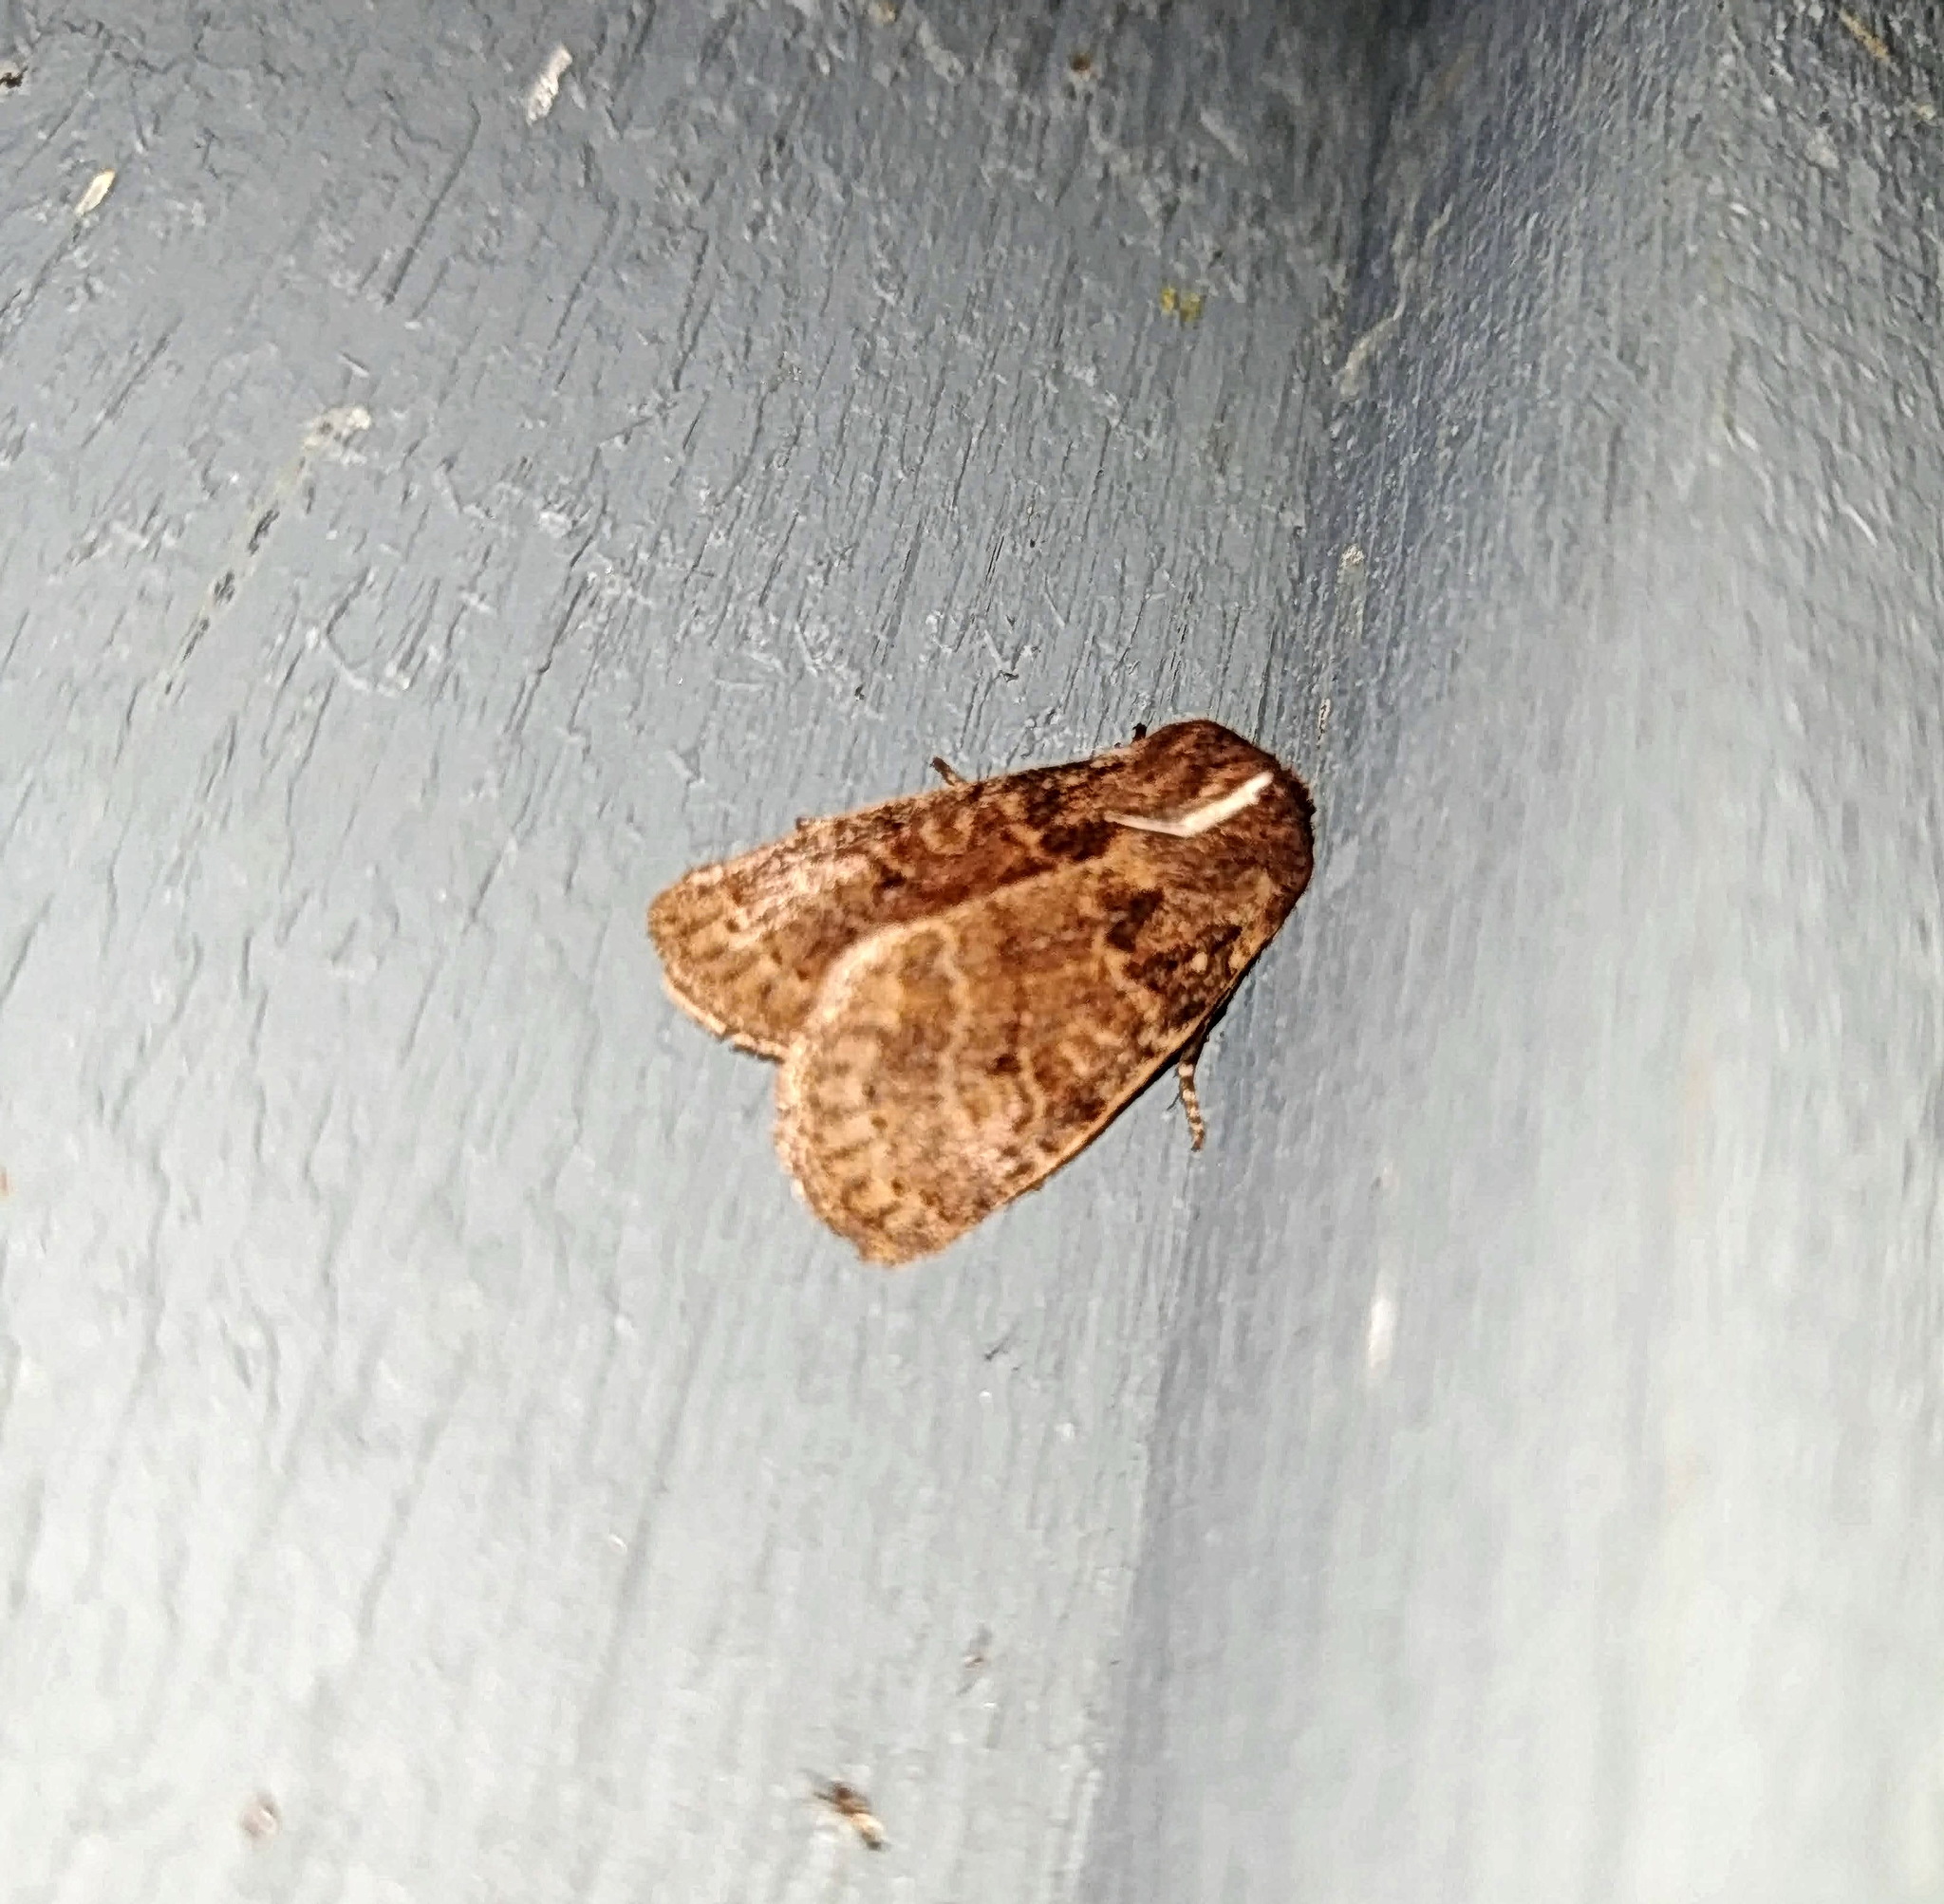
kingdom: Animalia
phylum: Arthropoda
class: Insecta
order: Lepidoptera
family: Noctuidae
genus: Homoglaea
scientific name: Homoglaea hircina
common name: Goat sallow
